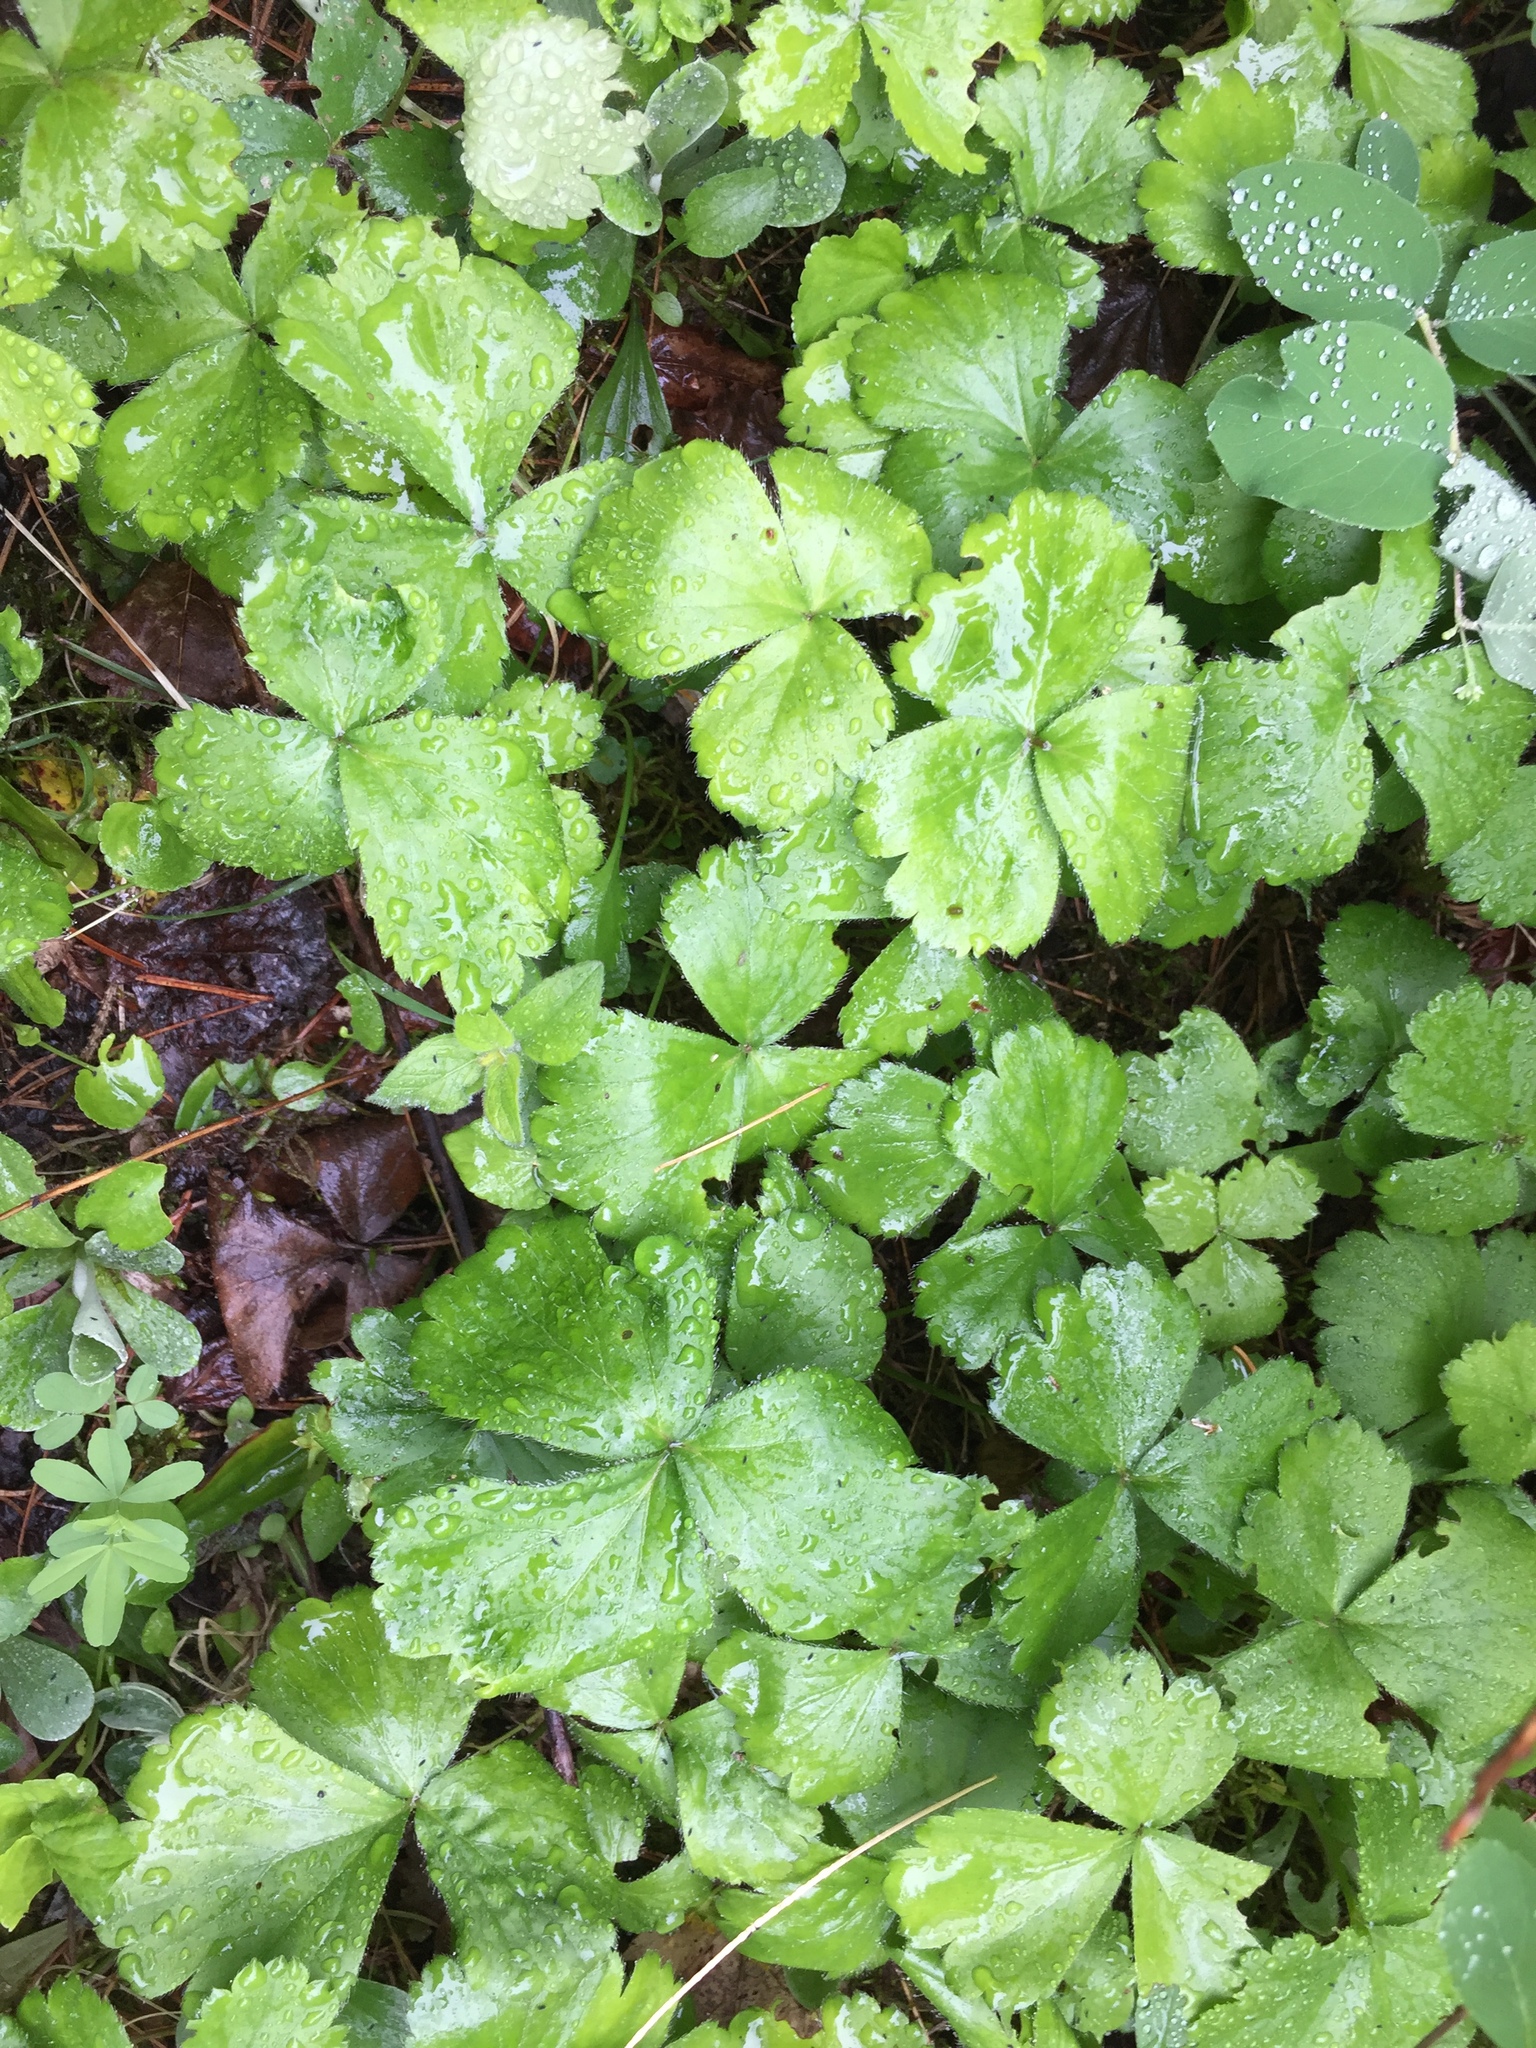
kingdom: Plantae
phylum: Tracheophyta
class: Magnoliopsida
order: Rosales
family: Rosaceae
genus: Geum
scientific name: Geum fragarioides
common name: Appalachian barren strawberry
